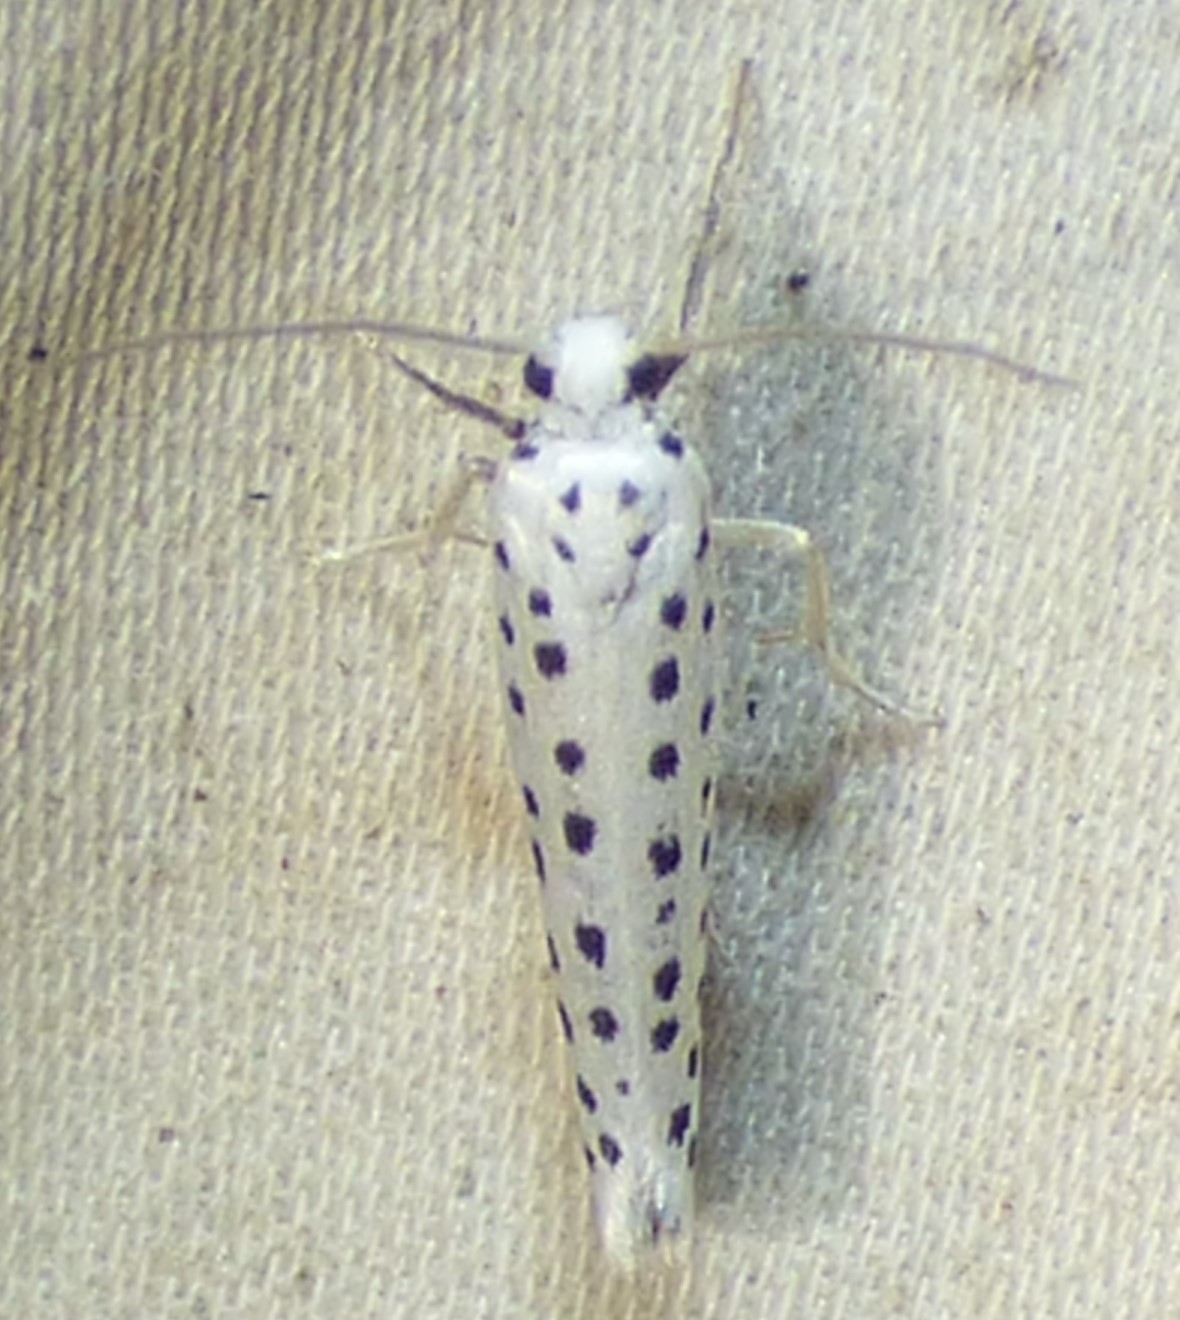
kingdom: Animalia
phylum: Arthropoda
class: Insecta
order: Lepidoptera
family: Yponomeutidae
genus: Yponomeuta
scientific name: Yponomeuta multipunctella
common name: American ermine moth
